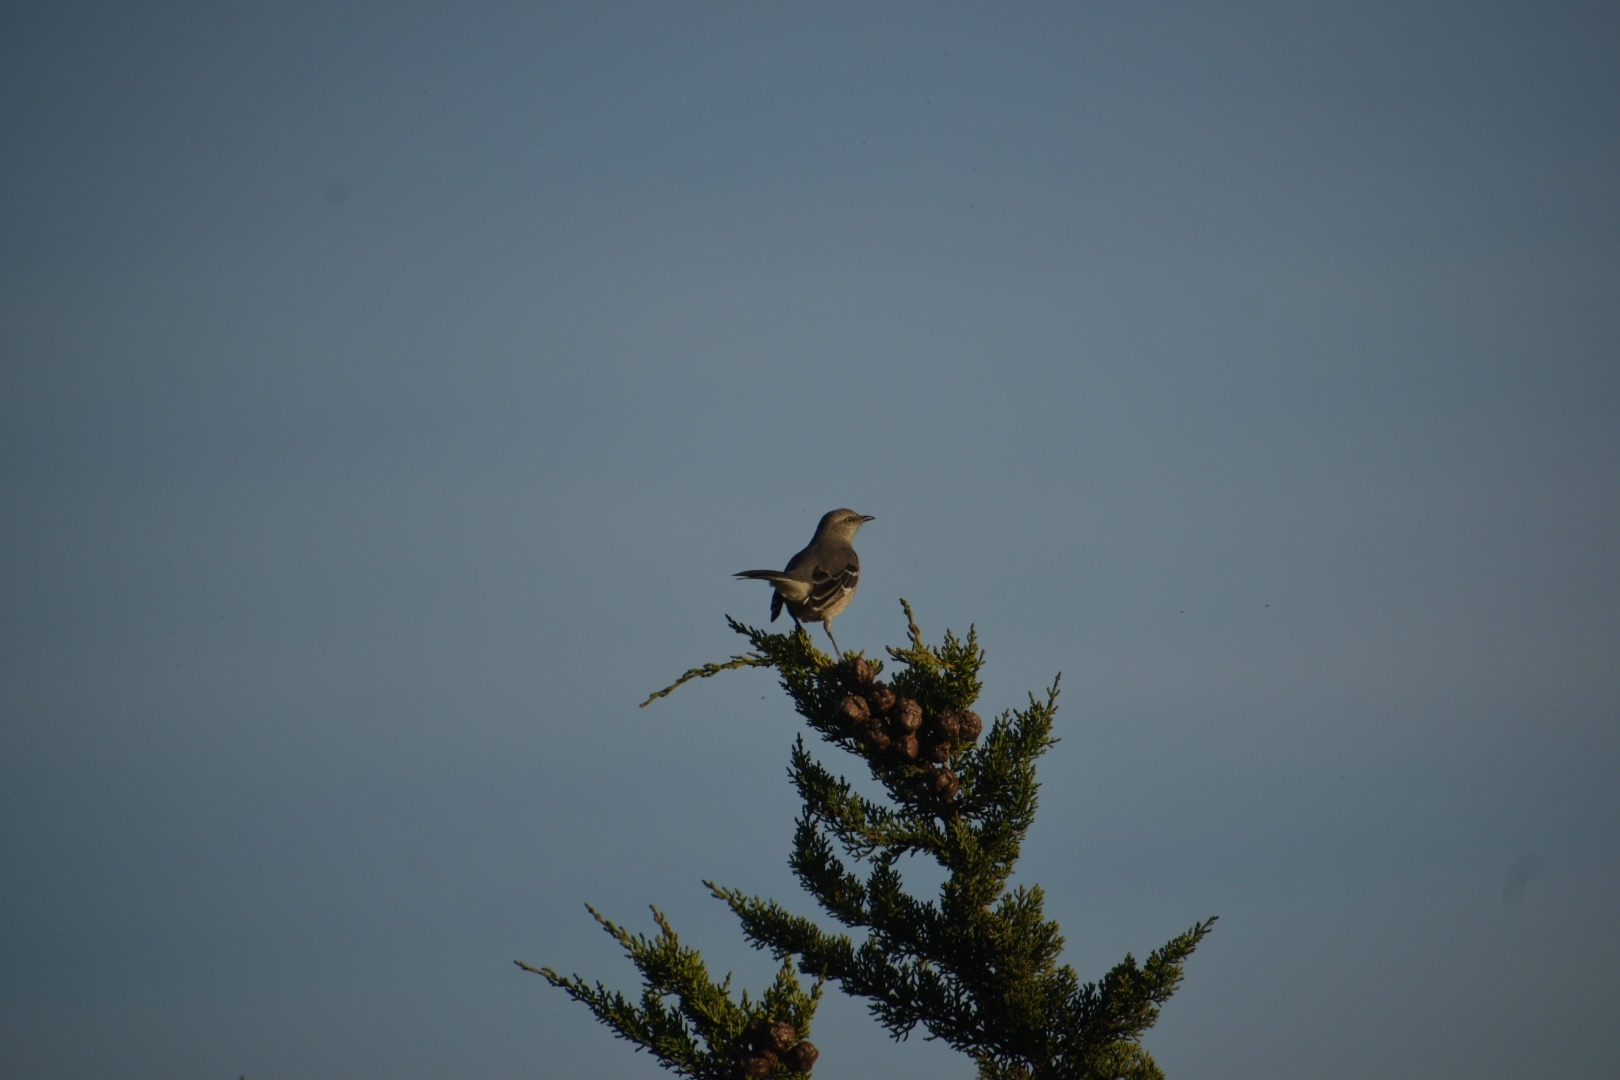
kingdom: Animalia
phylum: Chordata
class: Aves
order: Passeriformes
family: Mimidae
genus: Mimus
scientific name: Mimus polyglottos
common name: Northern mockingbird
